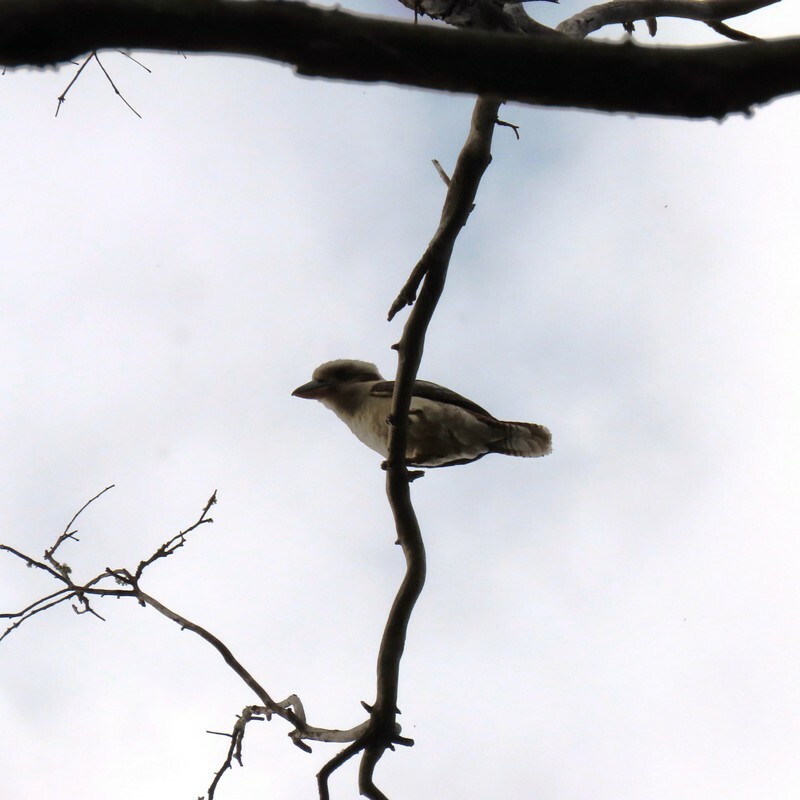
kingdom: Animalia
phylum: Chordata
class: Aves
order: Coraciiformes
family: Alcedinidae
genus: Dacelo
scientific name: Dacelo novaeguineae
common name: Laughing kookaburra
